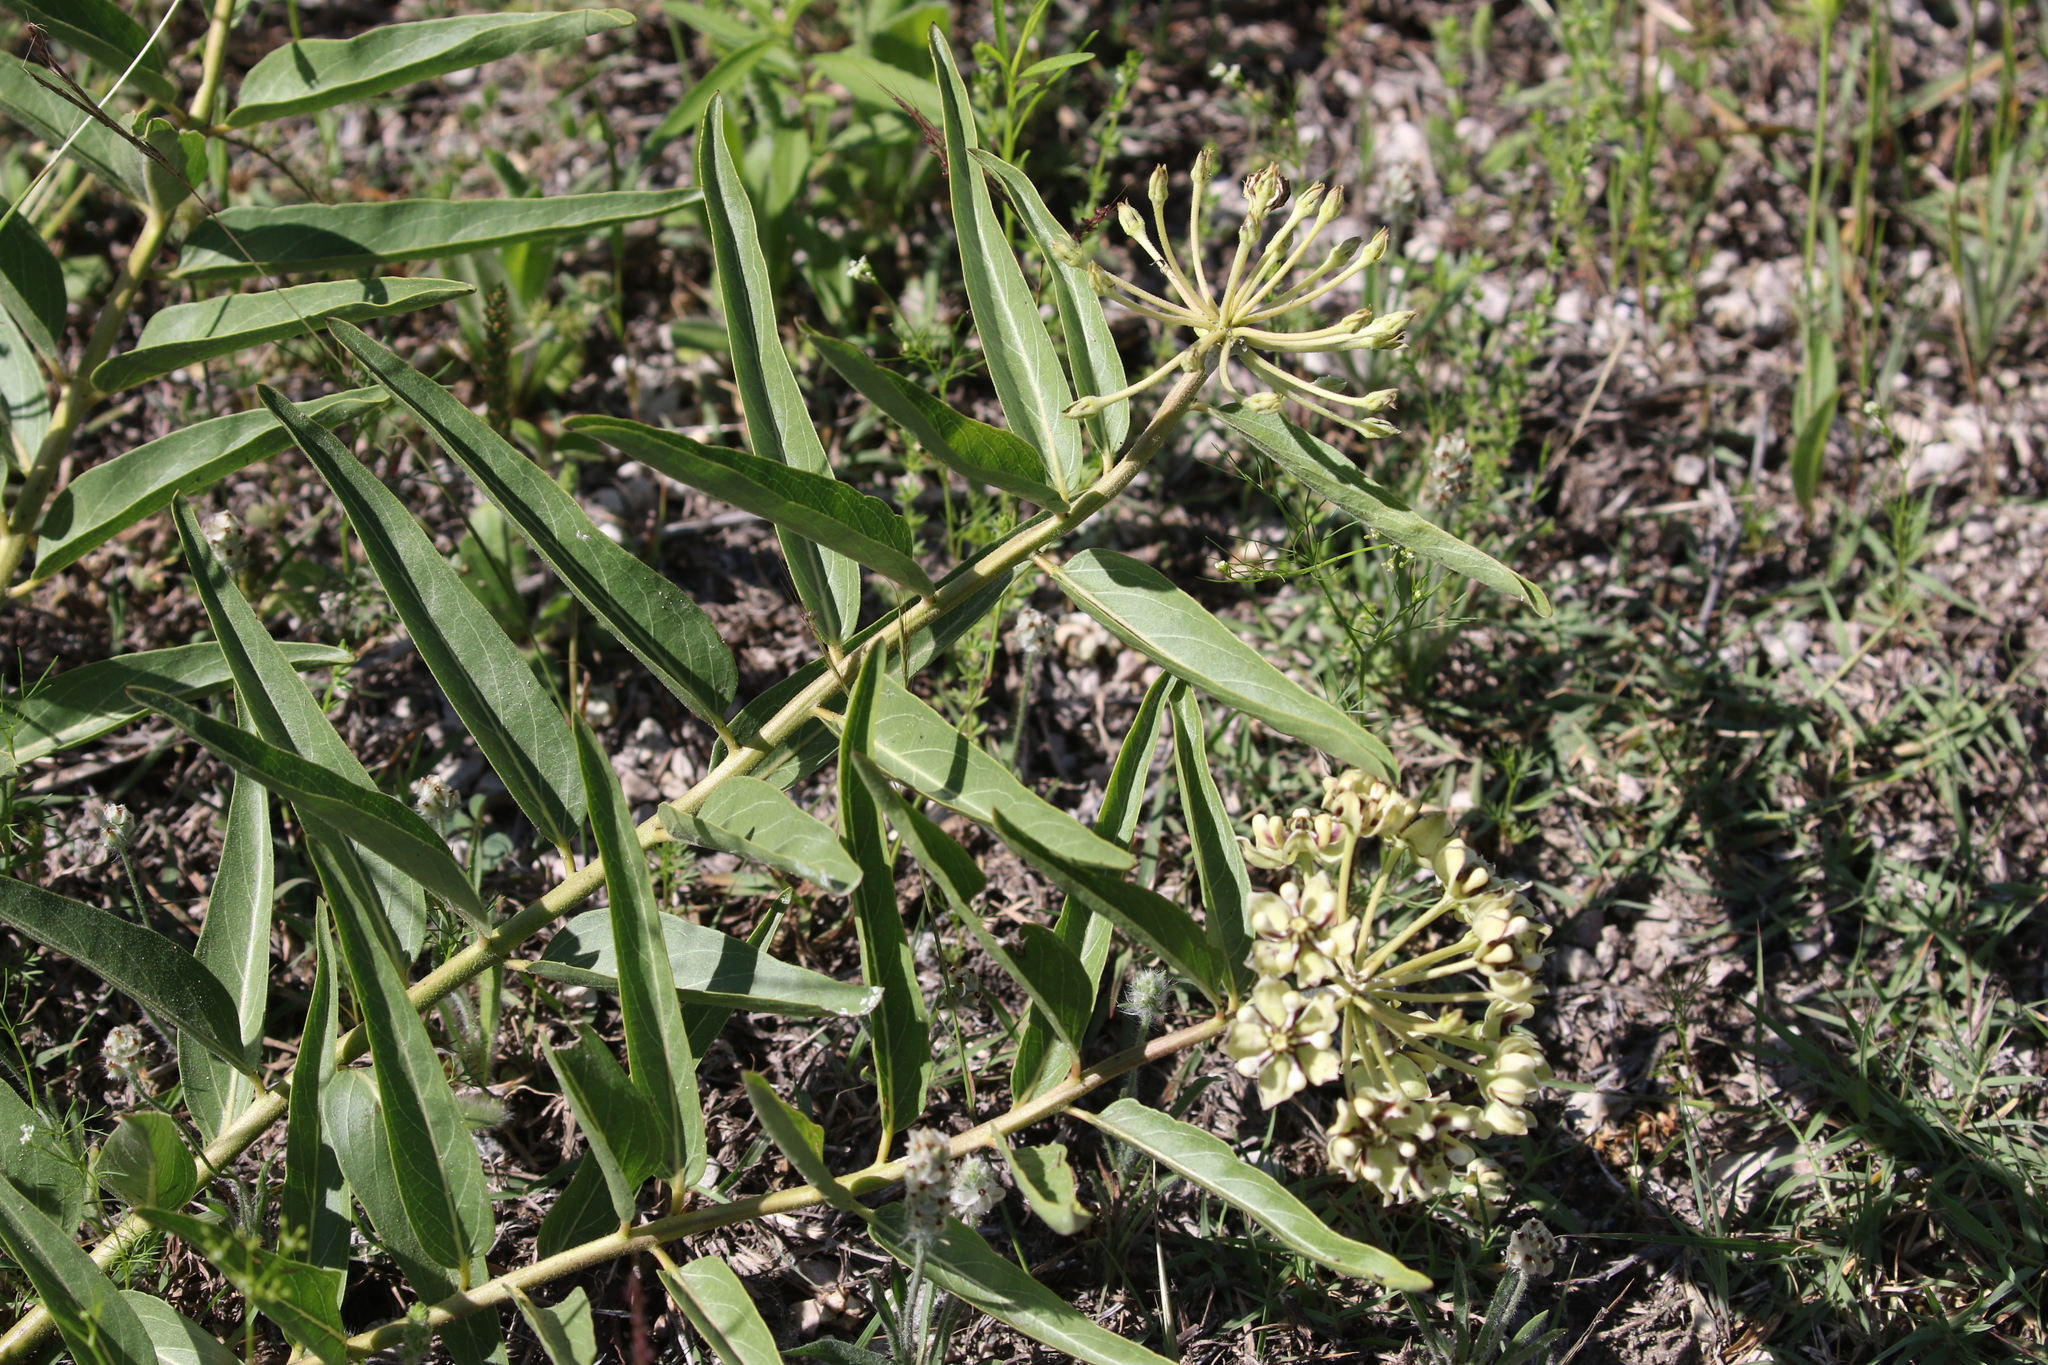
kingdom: Plantae
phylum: Tracheophyta
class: Magnoliopsida
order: Gentianales
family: Apocynaceae
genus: Asclepias
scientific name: Asclepias asperula
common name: Antelope horns
